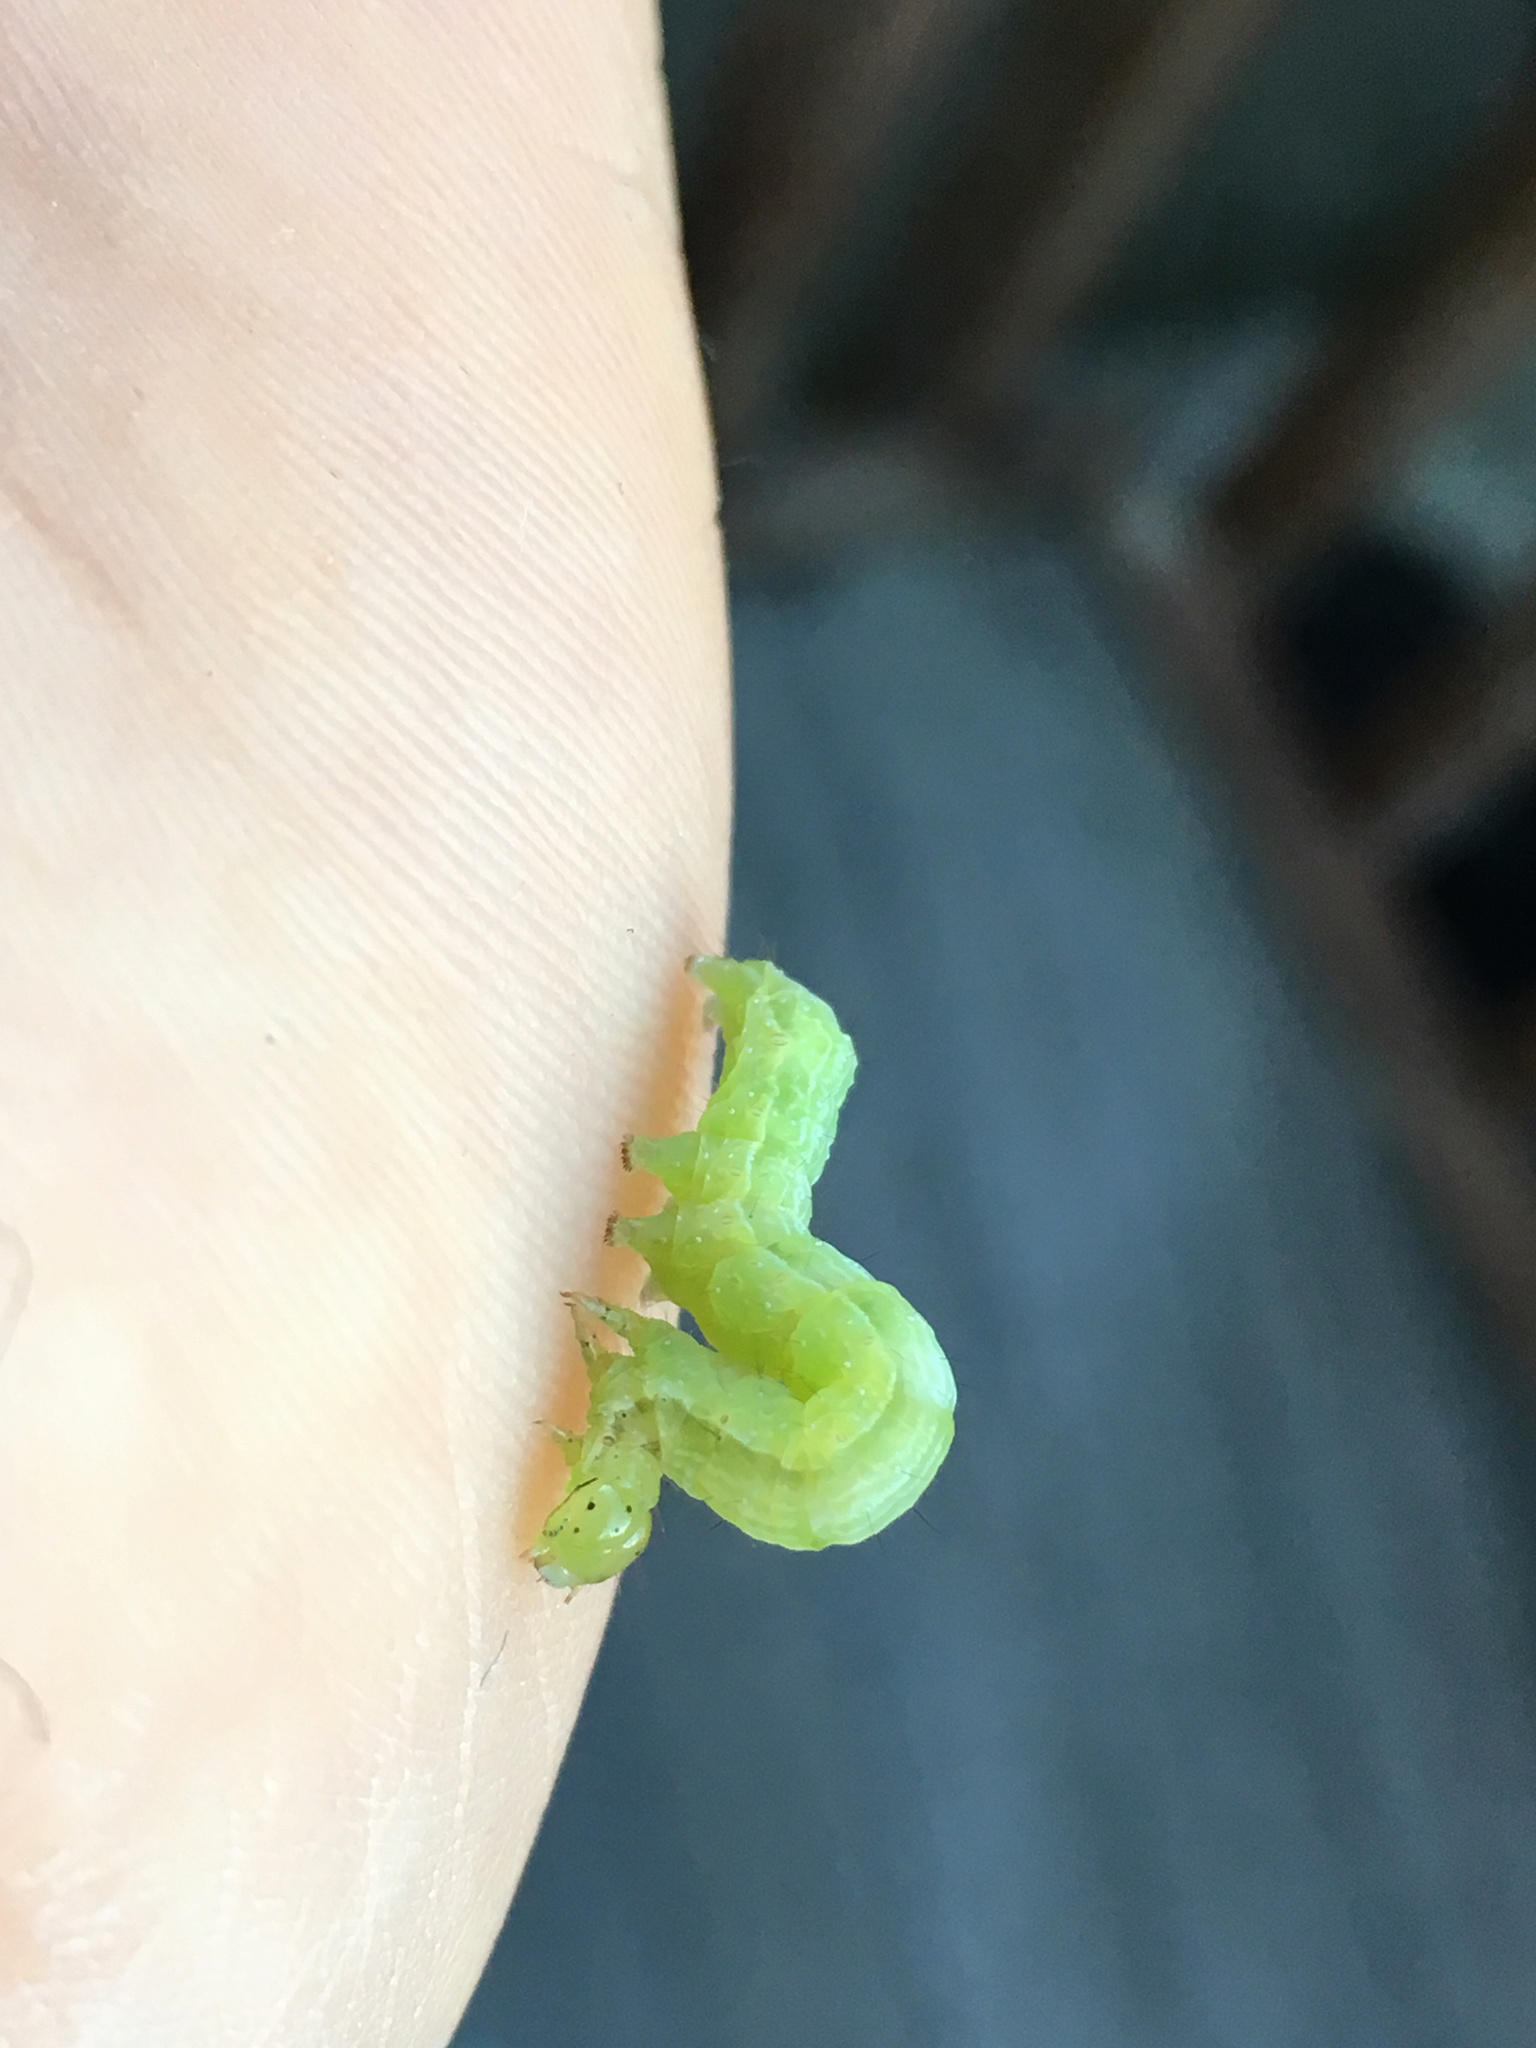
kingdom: Animalia
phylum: Arthropoda
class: Insecta
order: Lepidoptera
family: Noctuidae
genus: Chrysodeixis
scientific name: Chrysodeixis eriosoma
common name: Green garden looper
